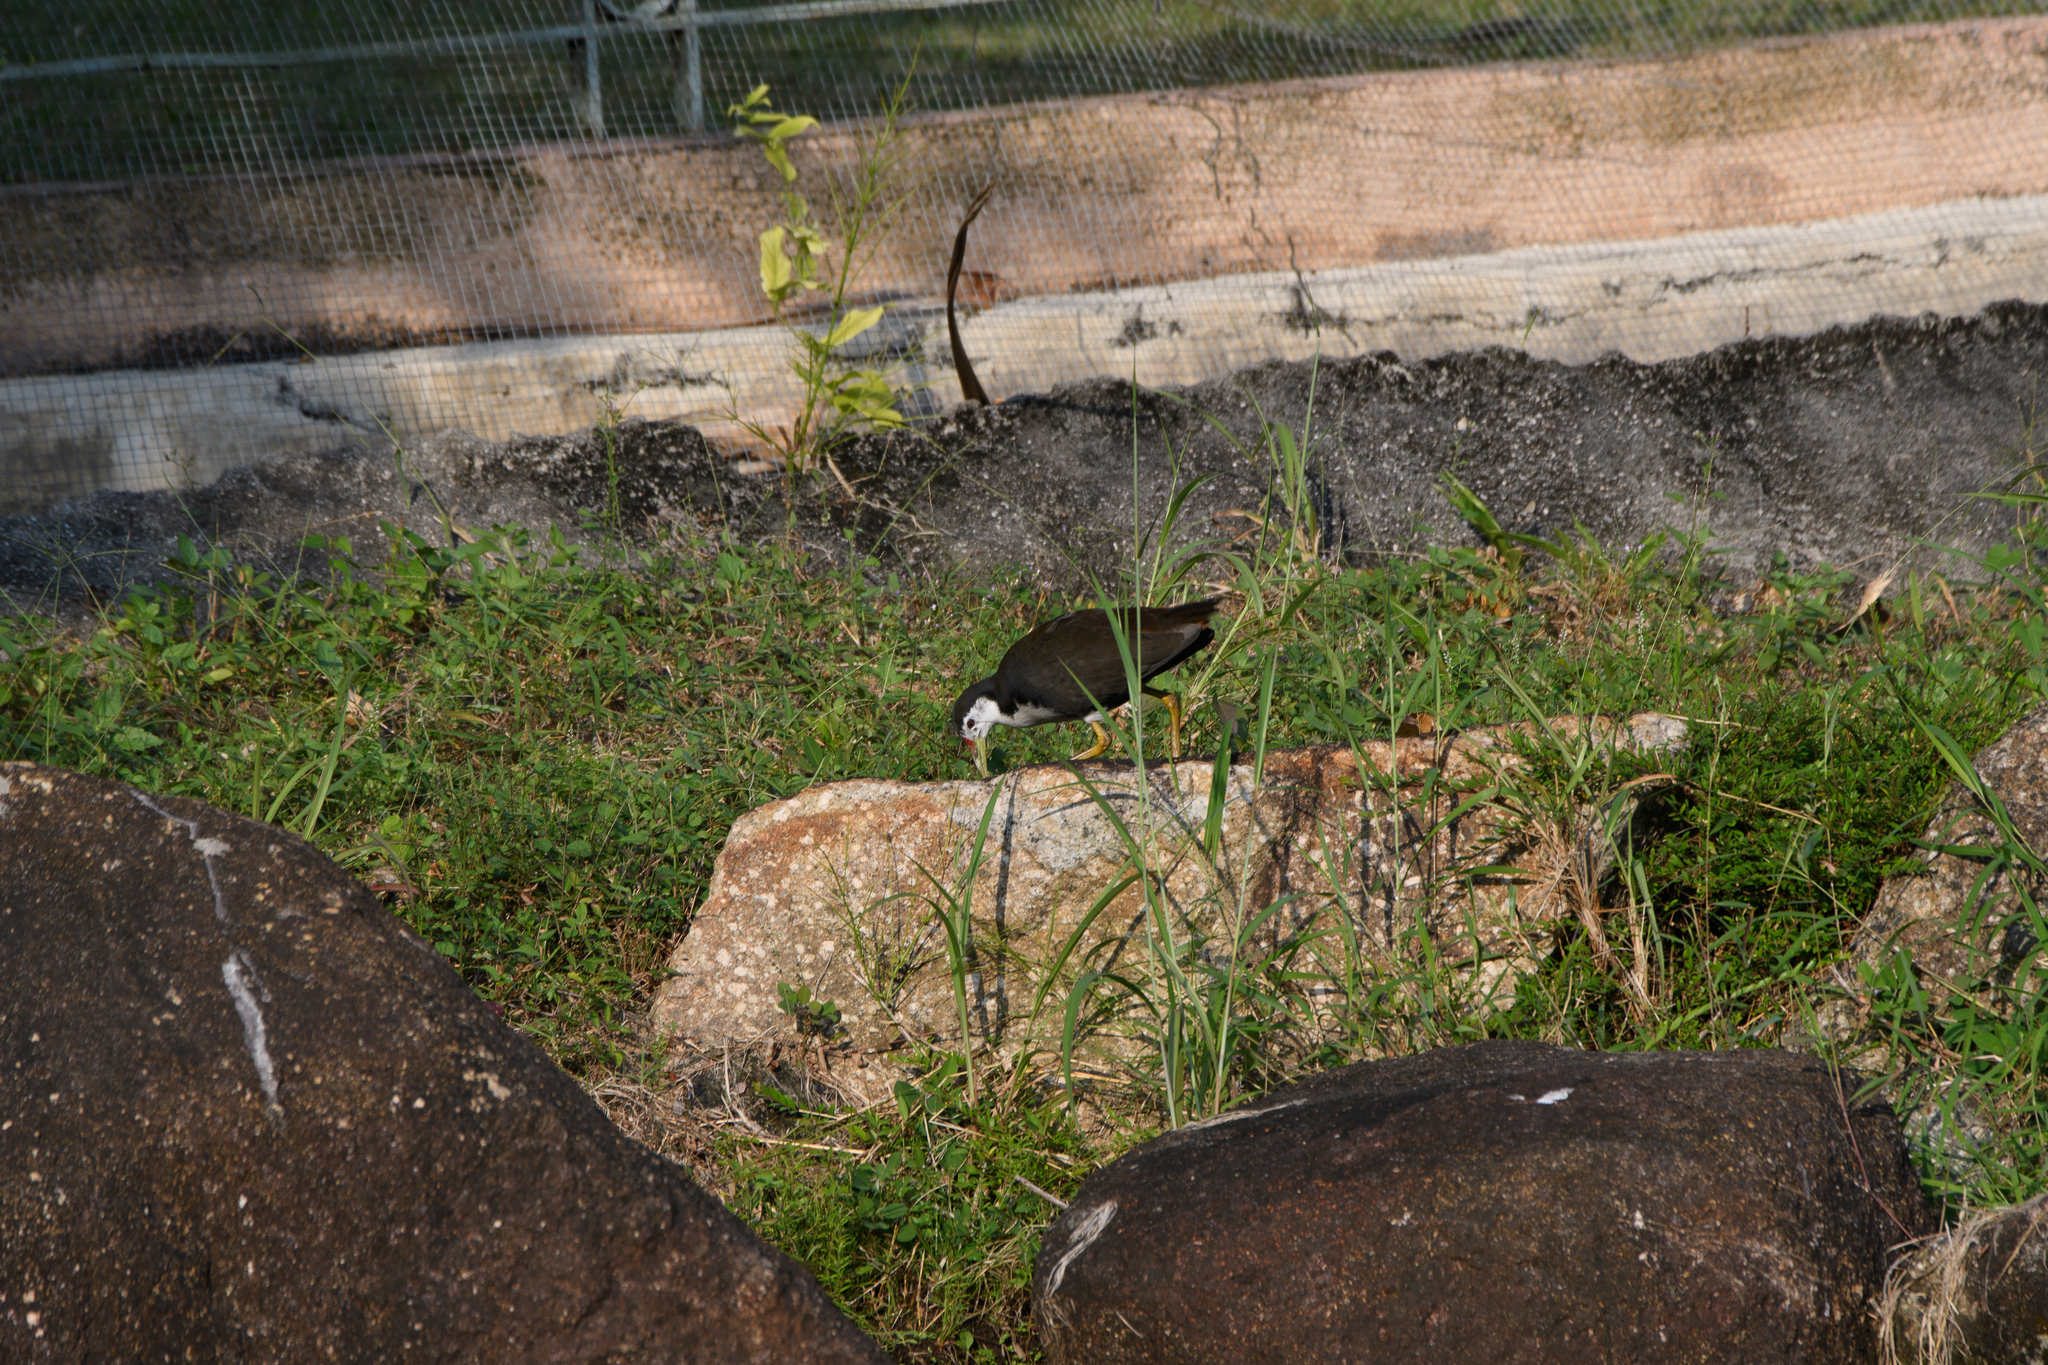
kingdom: Animalia
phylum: Chordata
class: Aves
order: Gruiformes
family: Rallidae
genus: Amaurornis
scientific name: Amaurornis phoenicurus
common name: White-breasted waterhen
